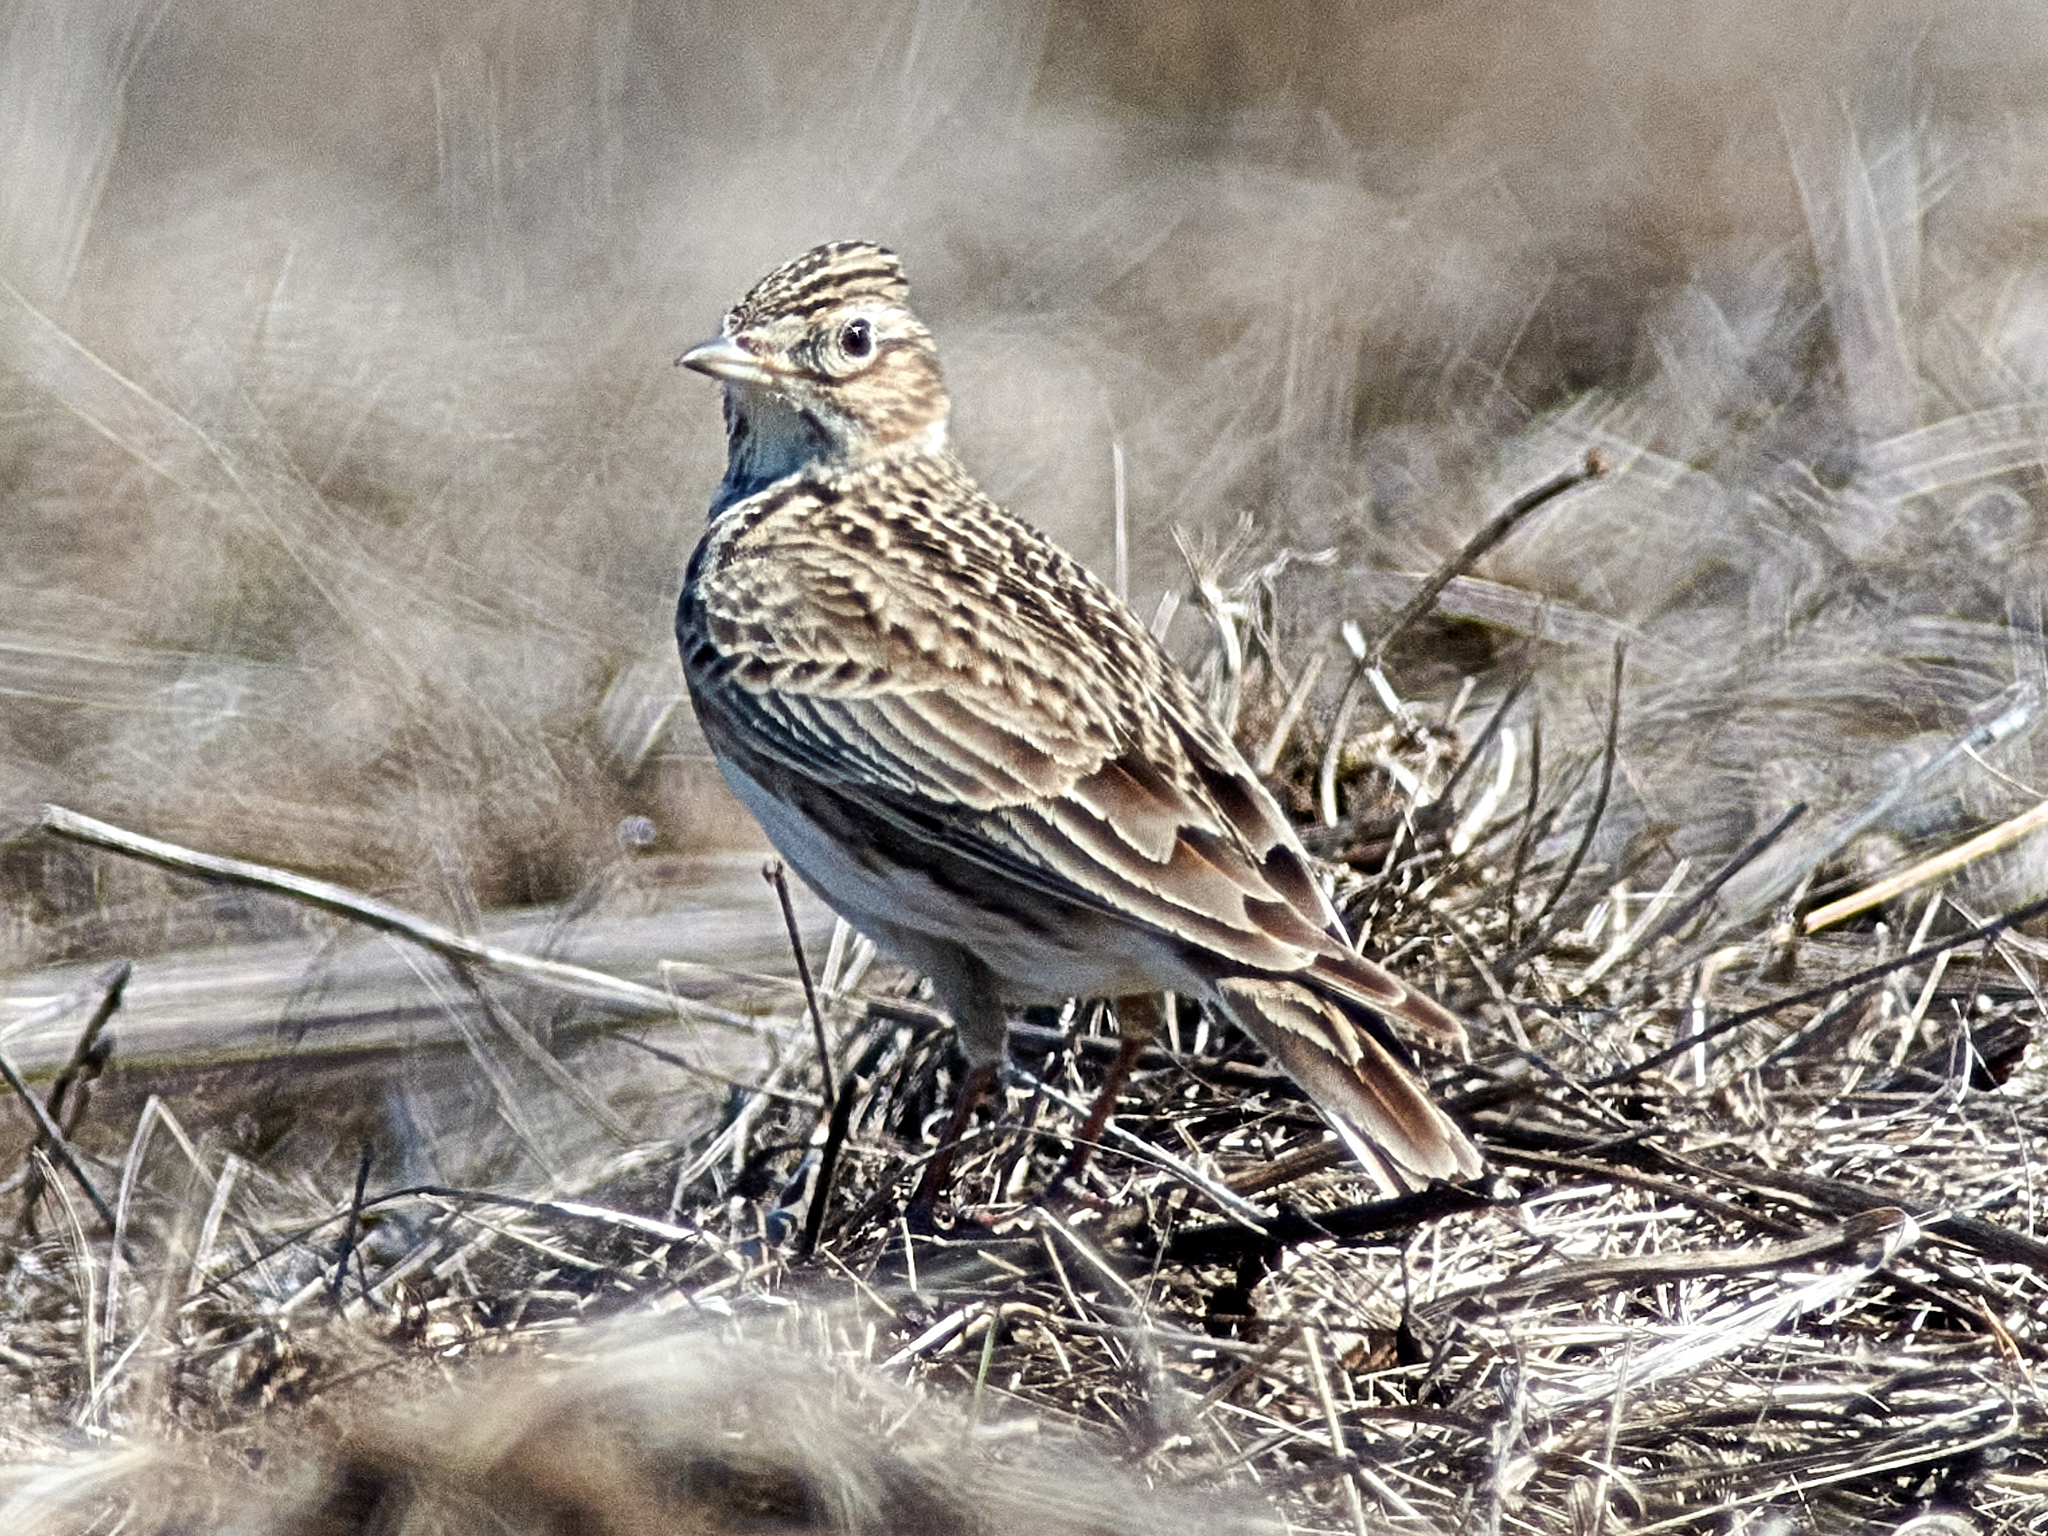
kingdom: Animalia
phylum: Chordata
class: Aves
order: Passeriformes
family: Alaudidae
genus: Alauda
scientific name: Alauda arvensis
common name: Eurasian skylark
